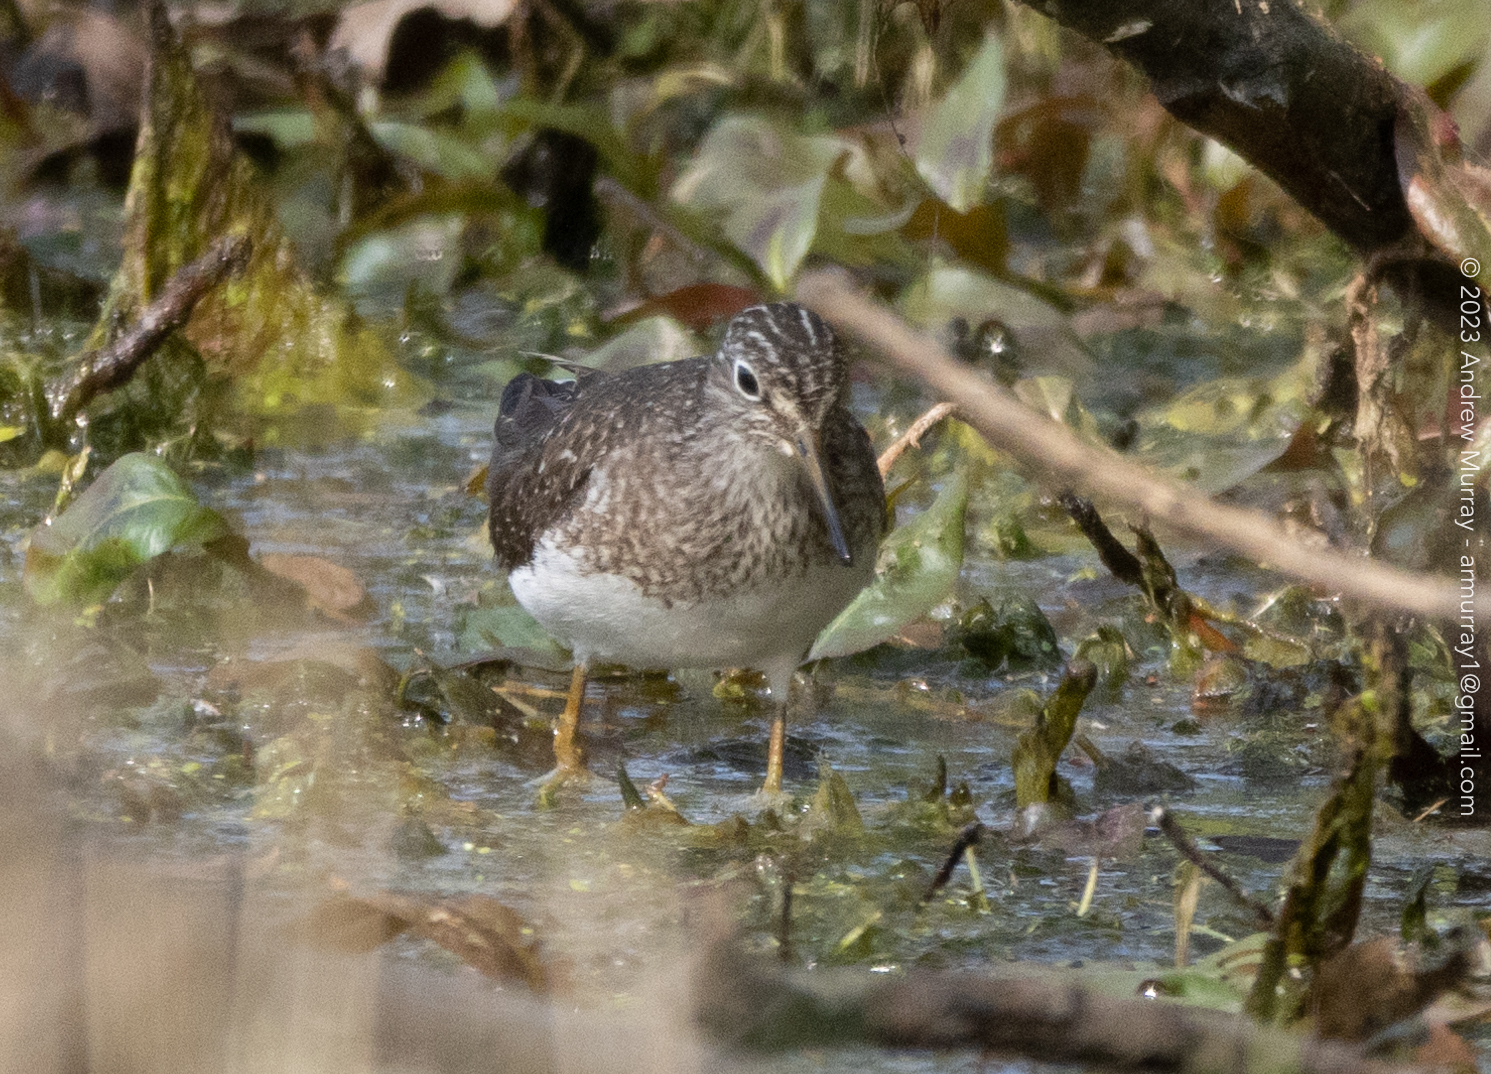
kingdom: Animalia
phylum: Chordata
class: Aves
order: Charadriiformes
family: Scolopacidae
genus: Tringa
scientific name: Tringa solitaria
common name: Solitary sandpiper
